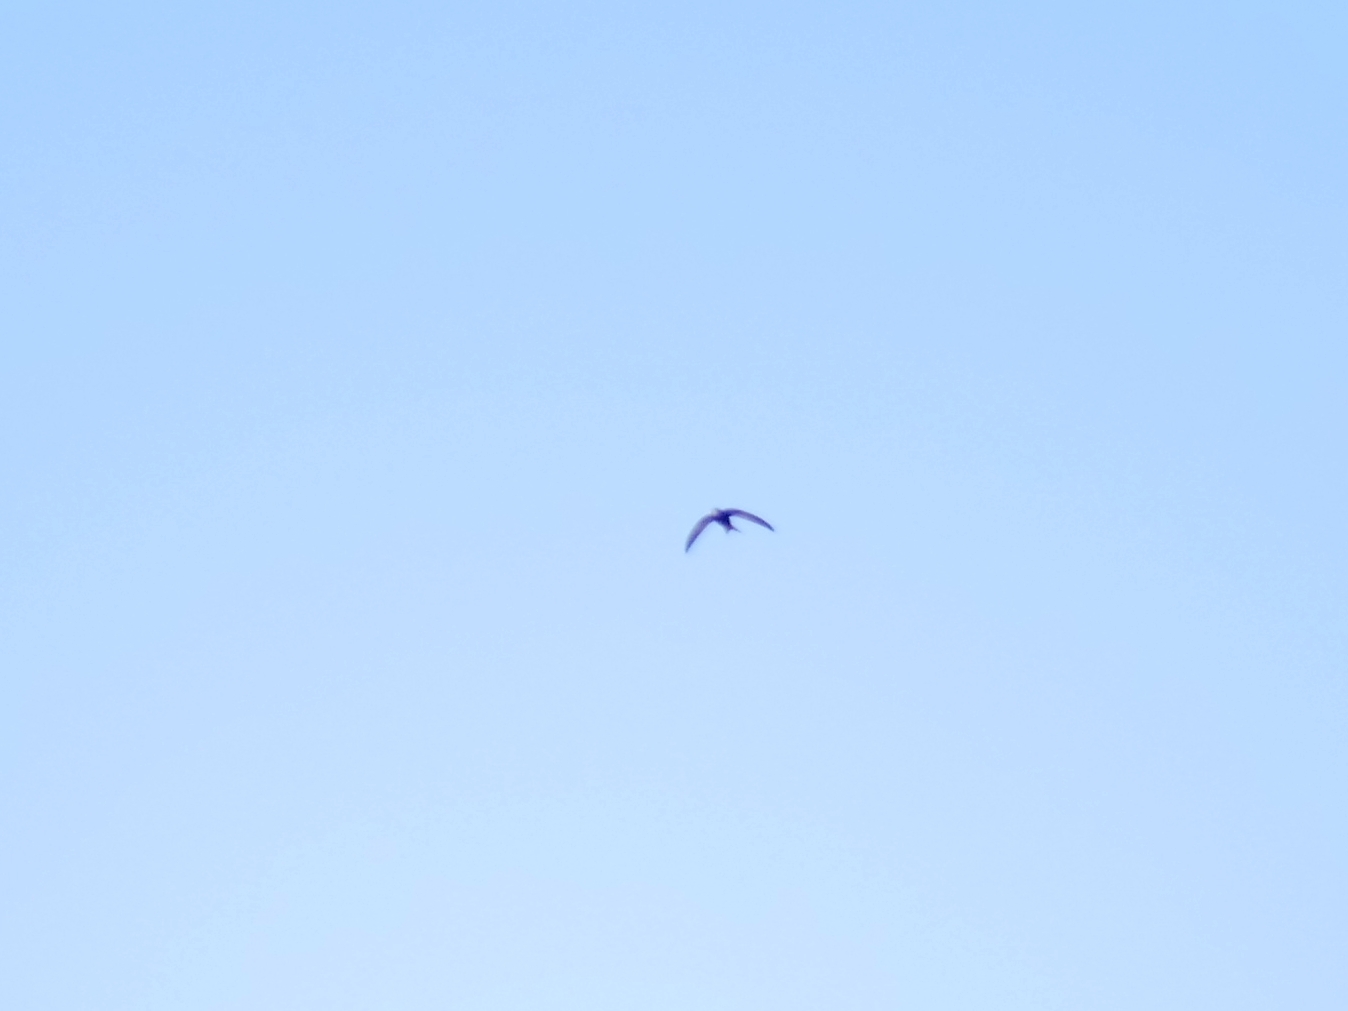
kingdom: Animalia
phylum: Chordata
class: Aves
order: Apodiformes
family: Apodidae
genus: Apus
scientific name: Apus apus
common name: Common swift
